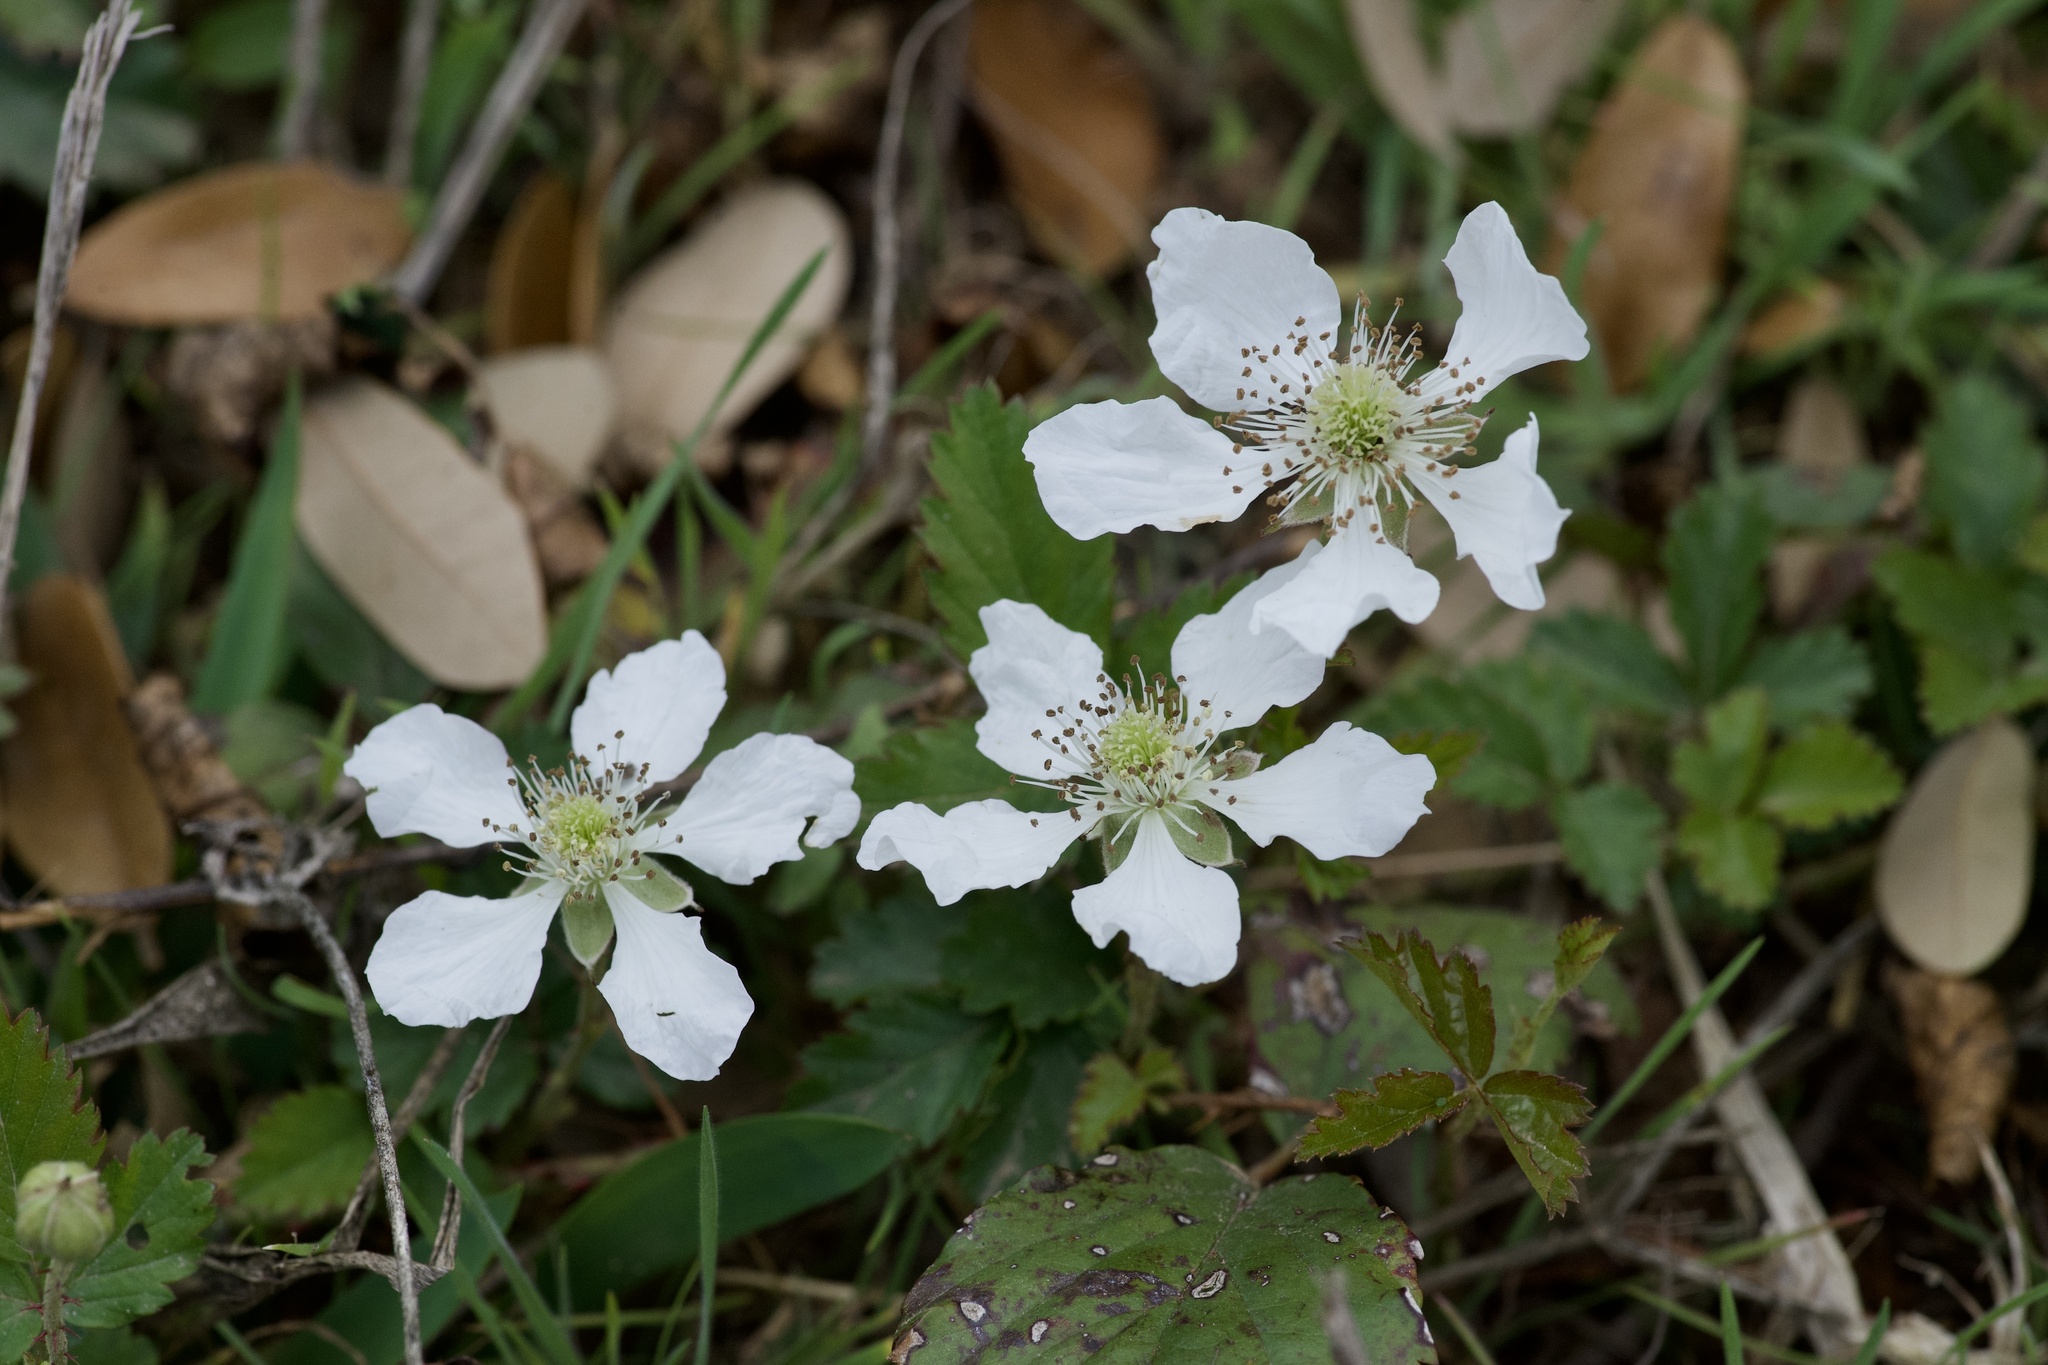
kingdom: Plantae
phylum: Tracheophyta
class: Magnoliopsida
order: Rosales
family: Rosaceae
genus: Rubus
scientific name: Rubus trivialis
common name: Southern dewberry
